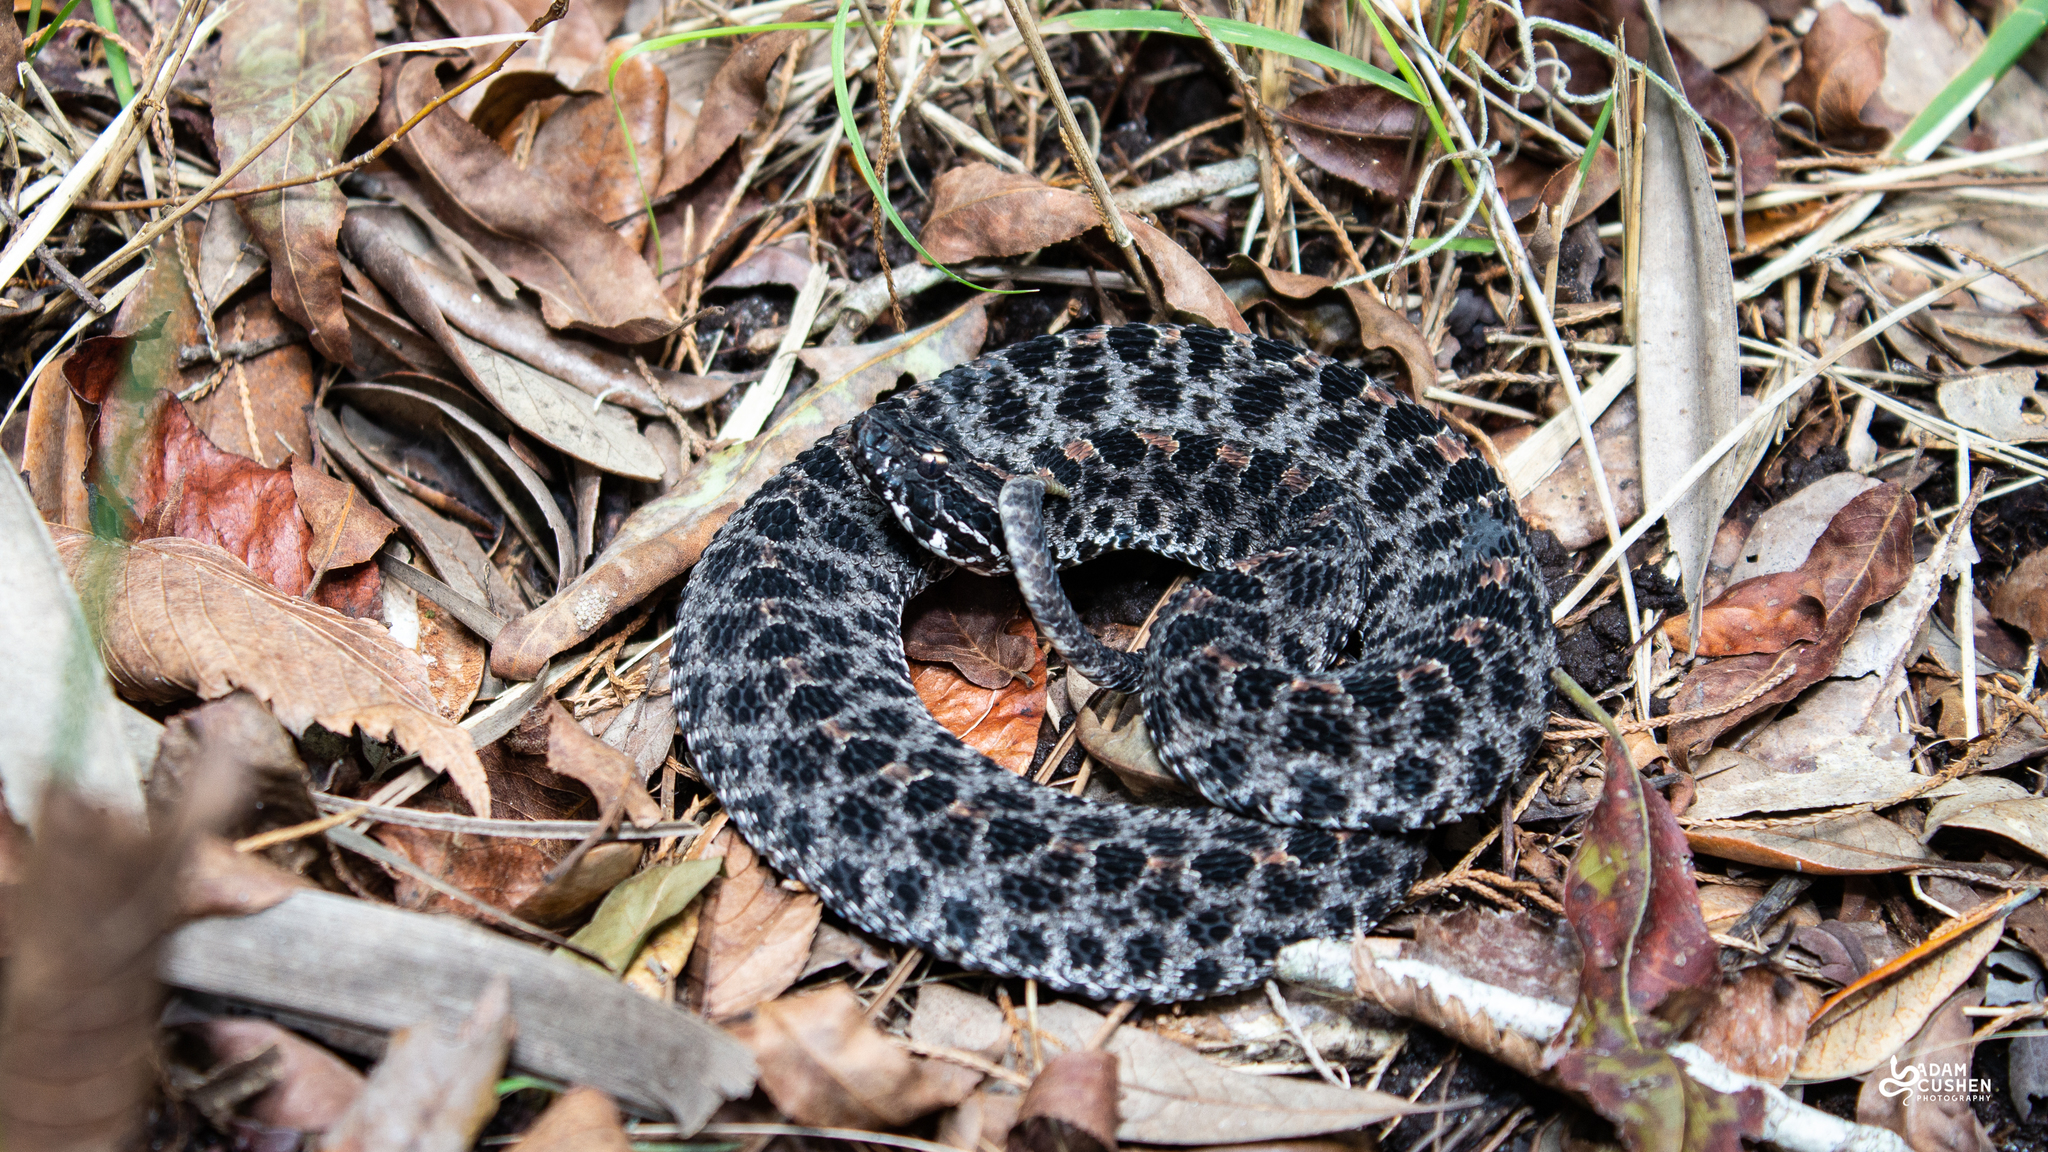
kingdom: Animalia
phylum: Chordata
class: Squamata
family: Viperidae
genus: Sistrurus
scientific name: Sistrurus miliarius
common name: Pygmy rattlesnake
